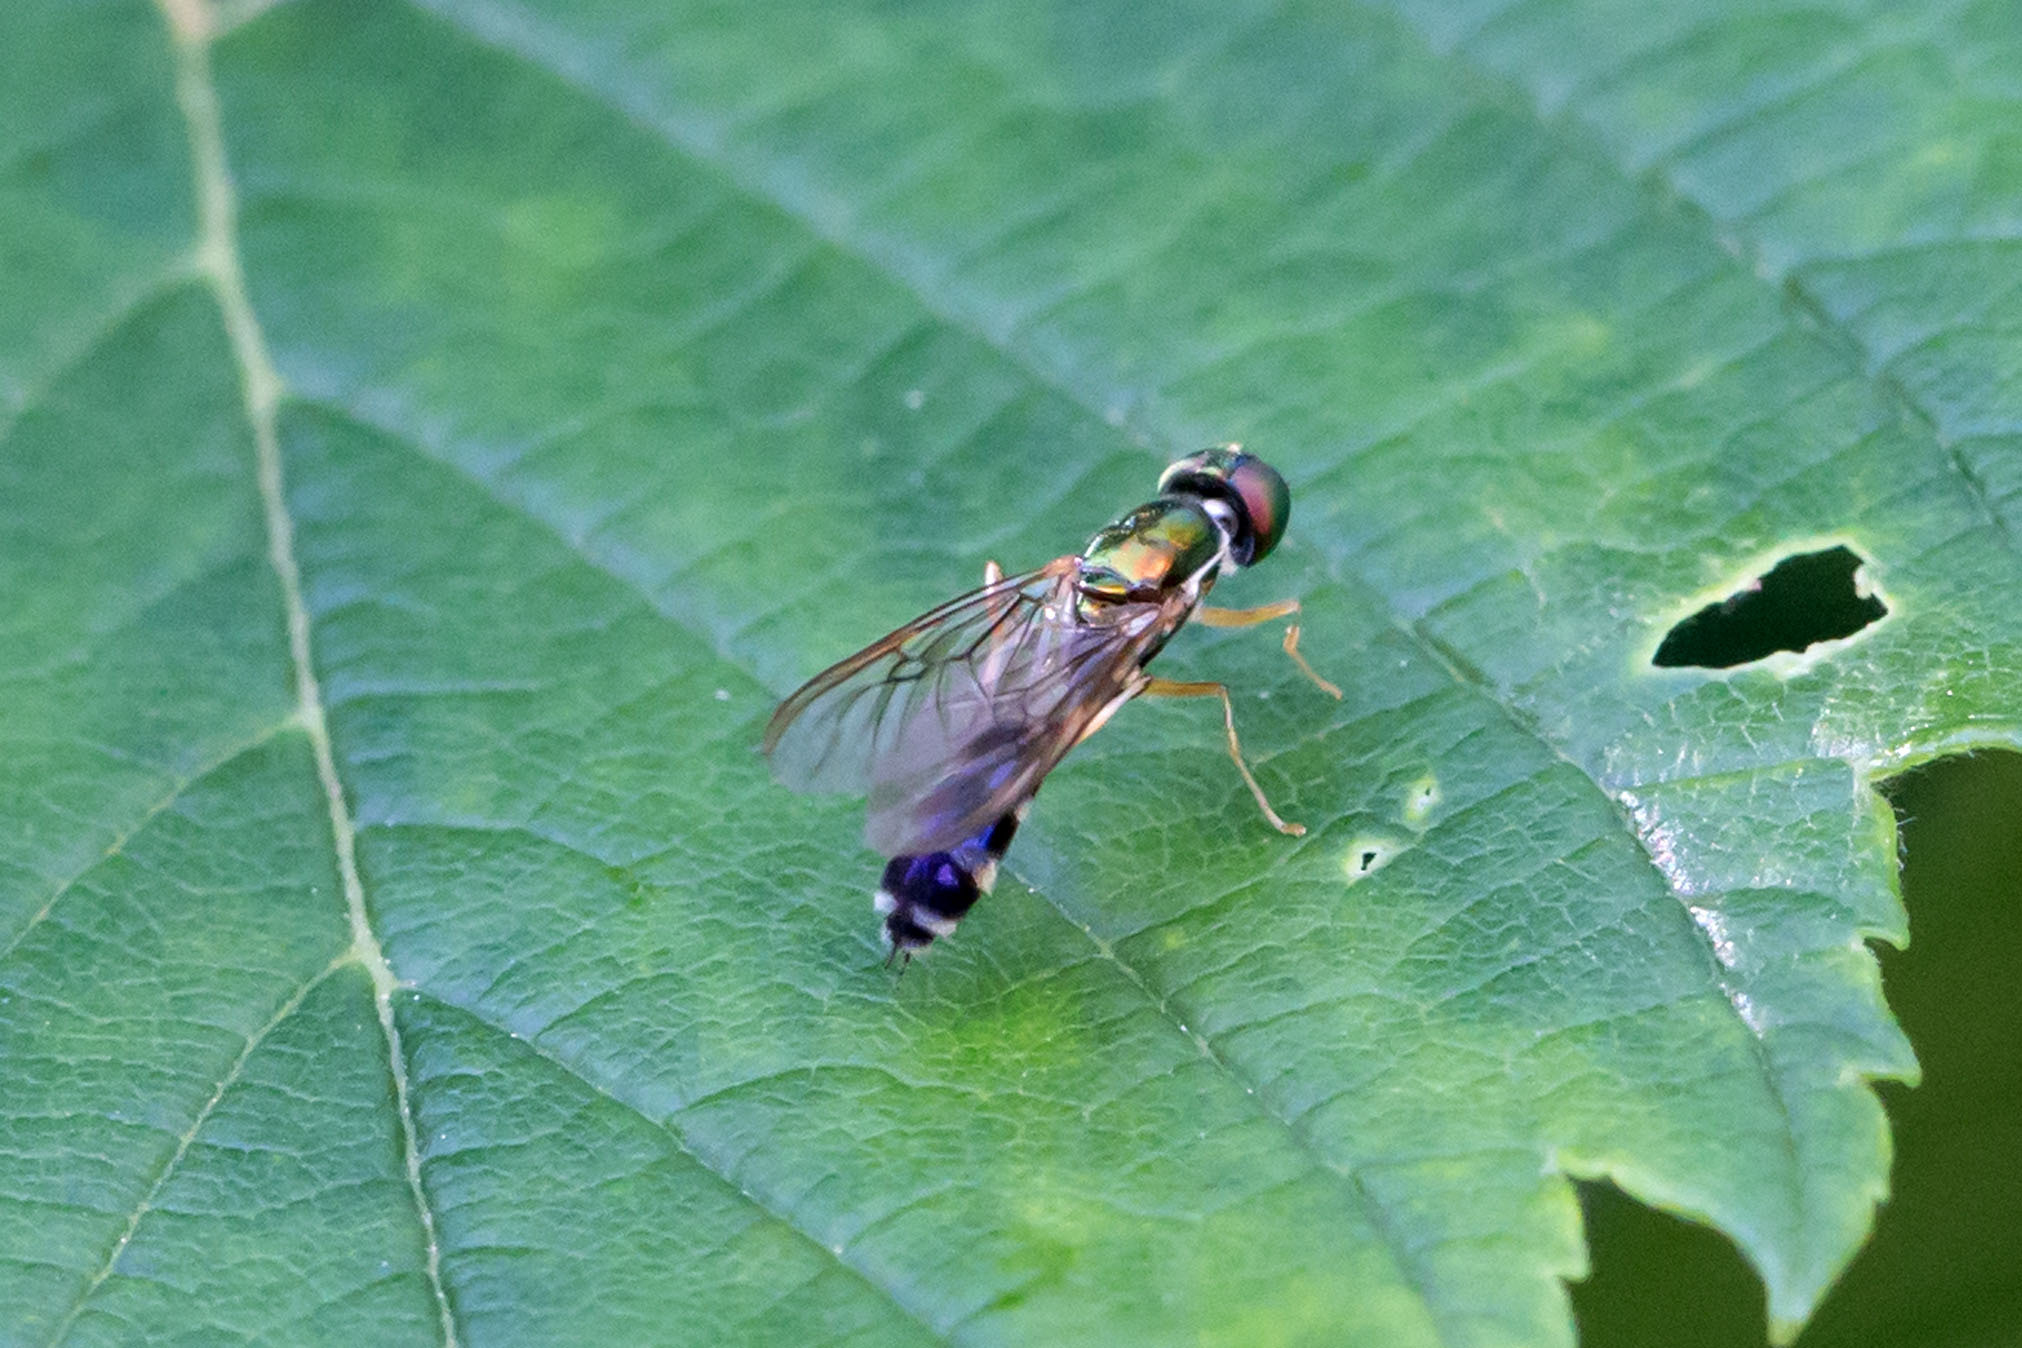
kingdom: Animalia
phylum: Arthropoda
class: Insecta
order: Diptera
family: Stratiomyidae
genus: Sargus
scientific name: Sargus fasciatus
